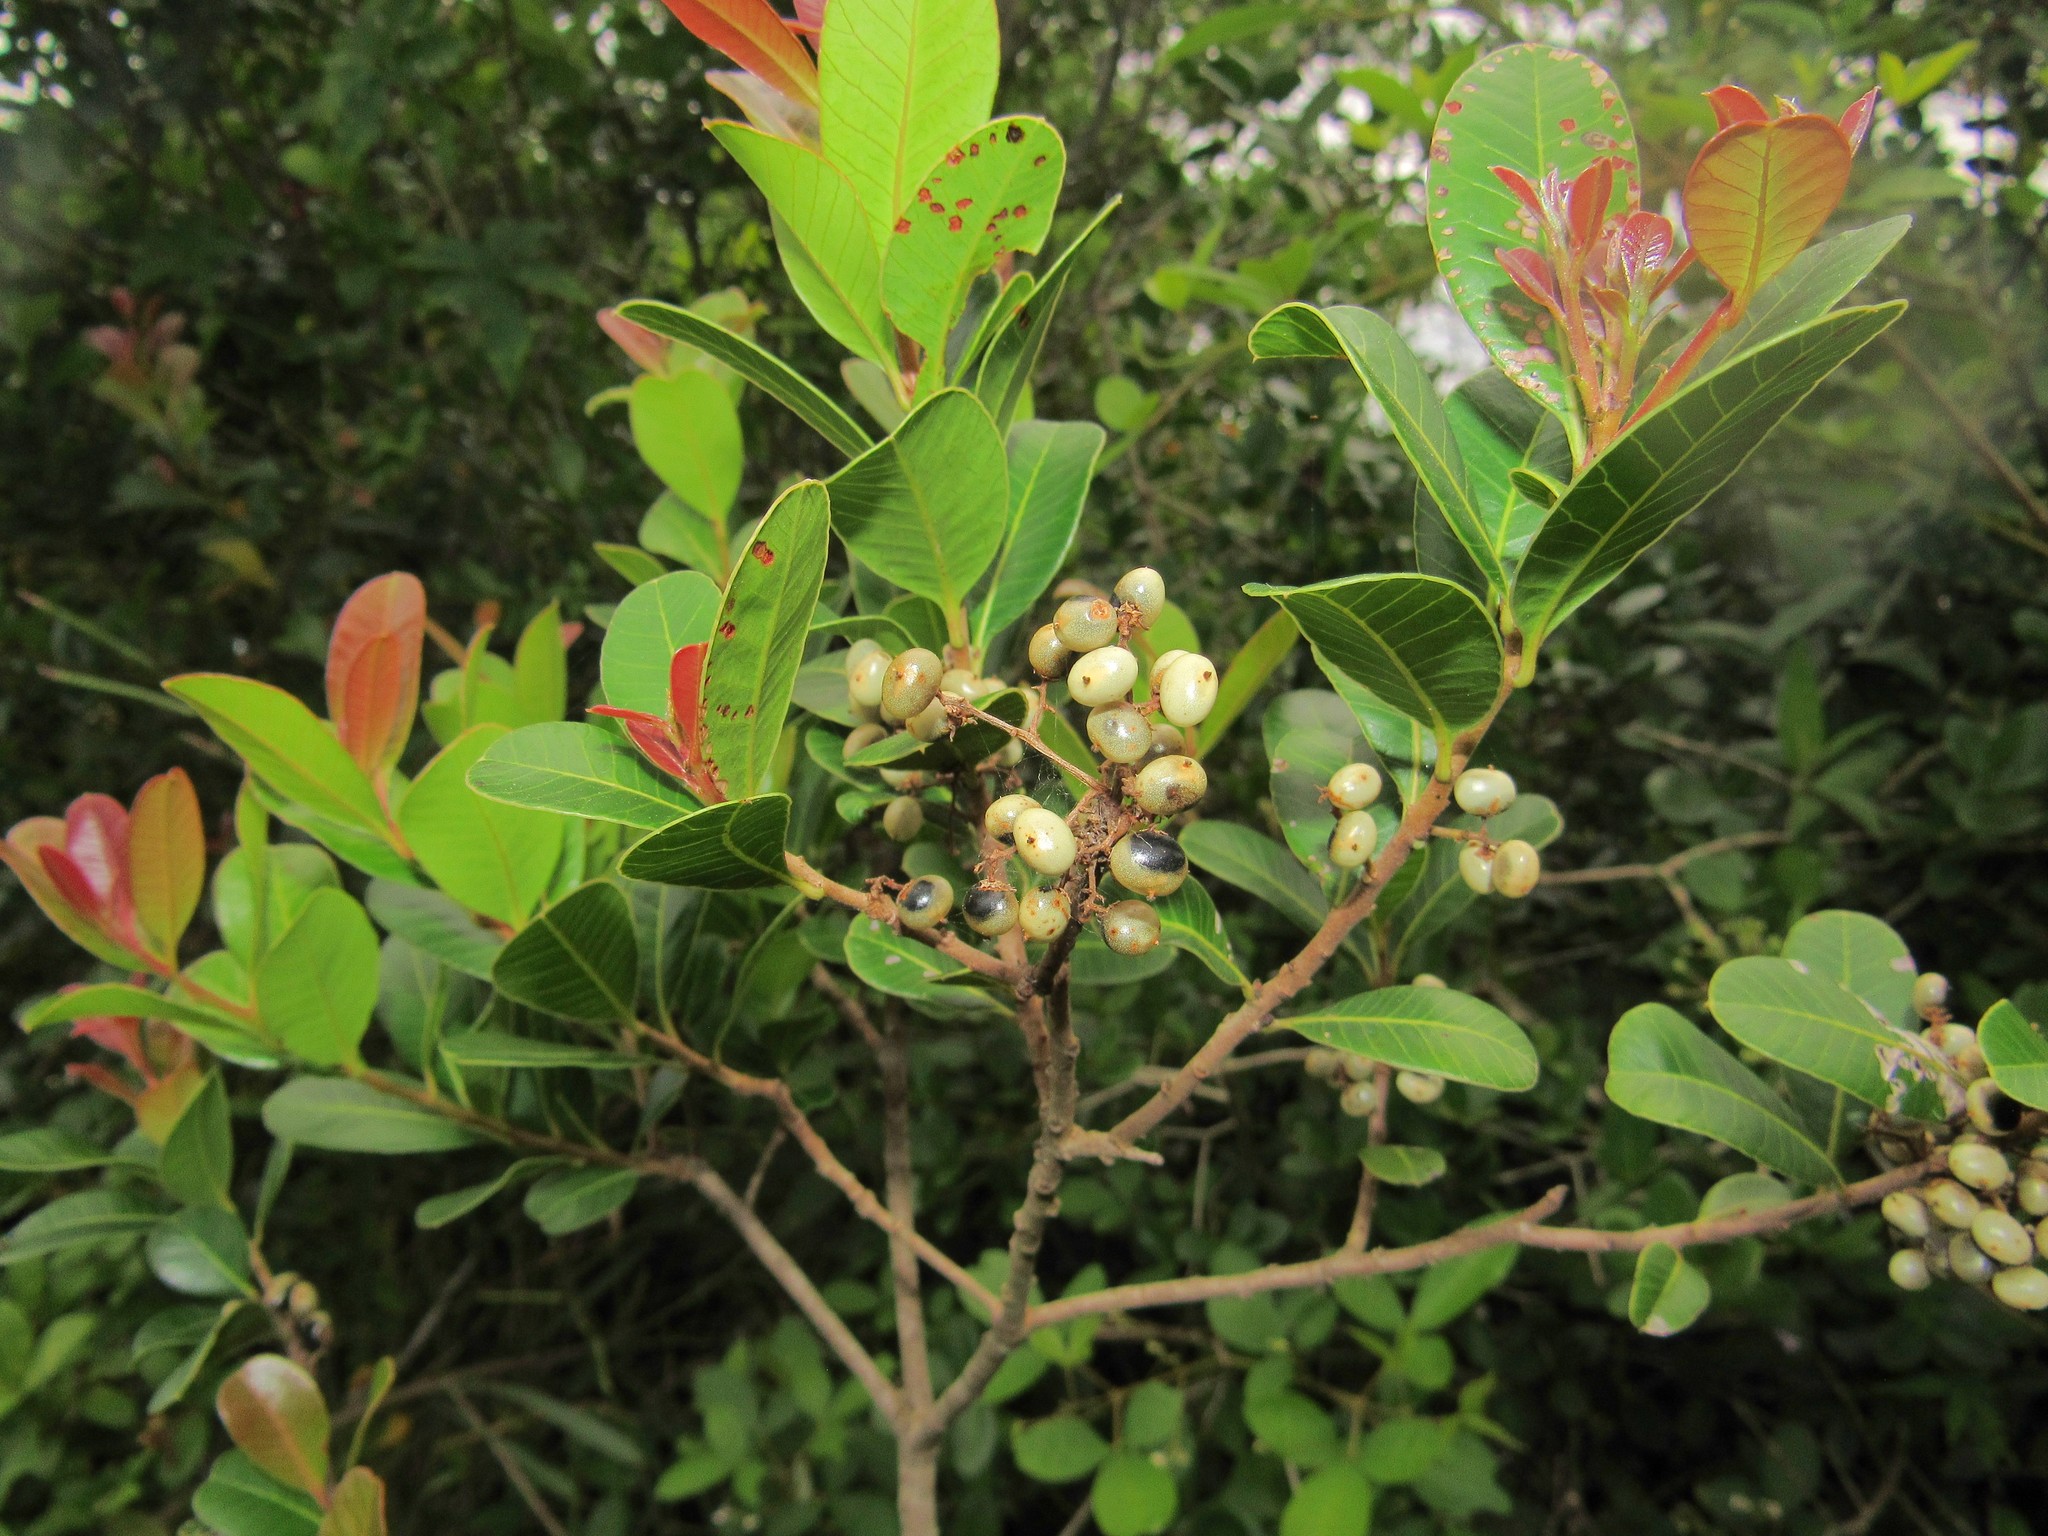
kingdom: Plantae
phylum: Tracheophyta
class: Magnoliopsida
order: Sapindales
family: Anacardiaceae
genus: Lithraea
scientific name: Lithraea brasiliensis
